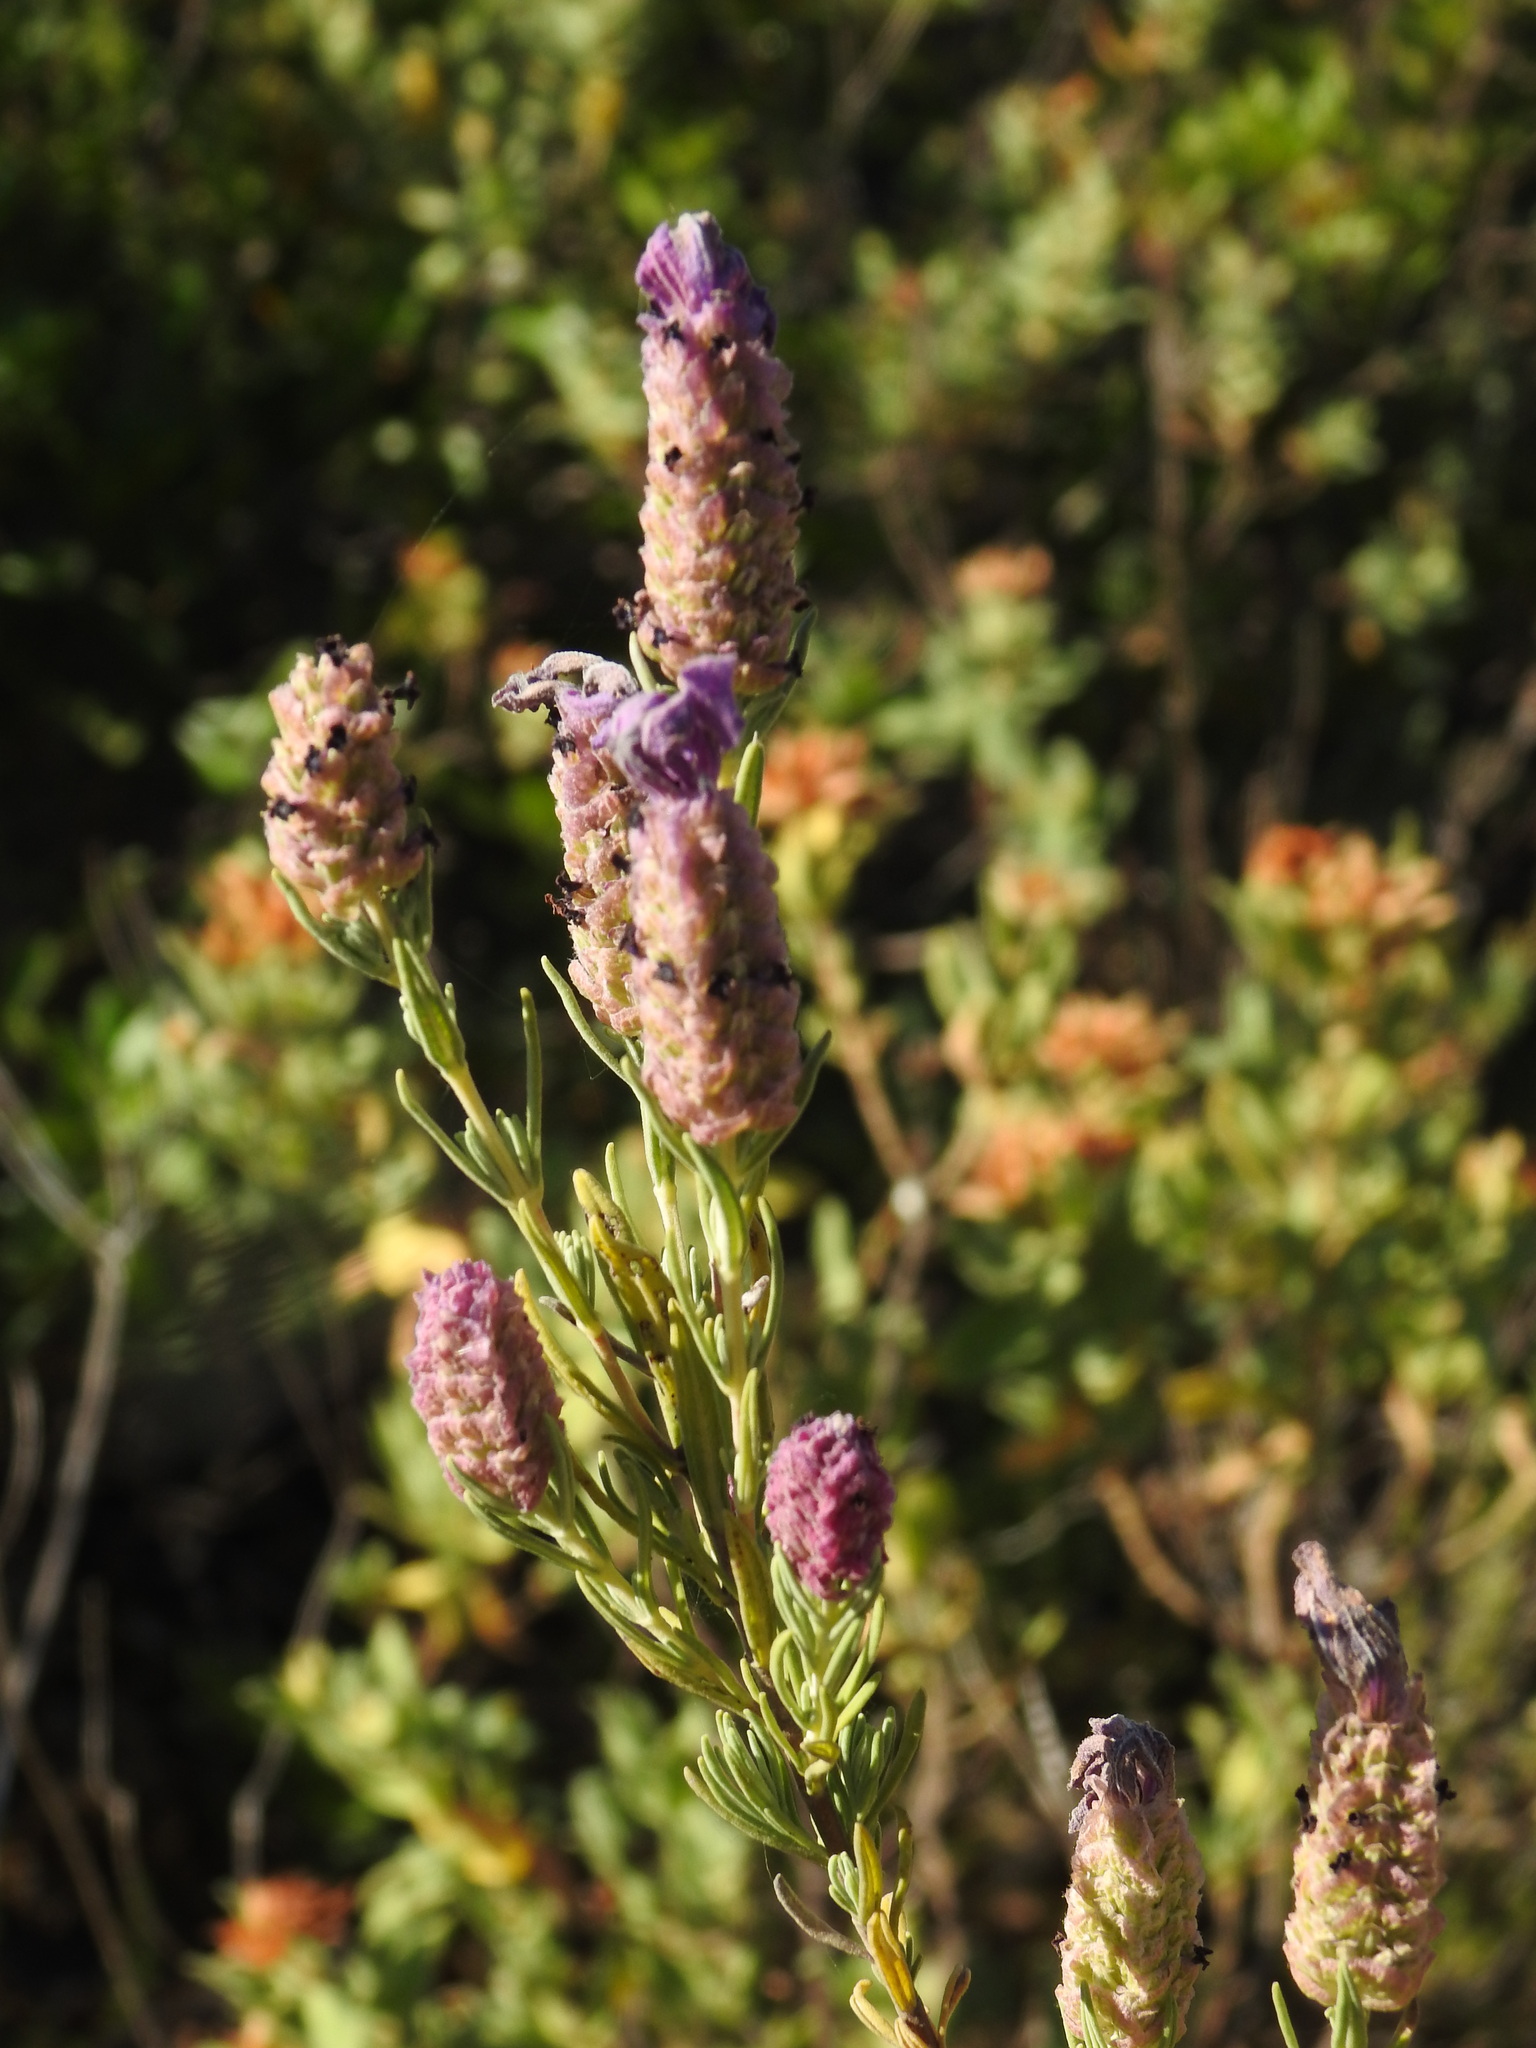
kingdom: Plantae
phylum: Tracheophyta
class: Magnoliopsida
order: Lamiales
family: Lamiaceae
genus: Lavandula
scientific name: Lavandula stoechas
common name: French lavender
